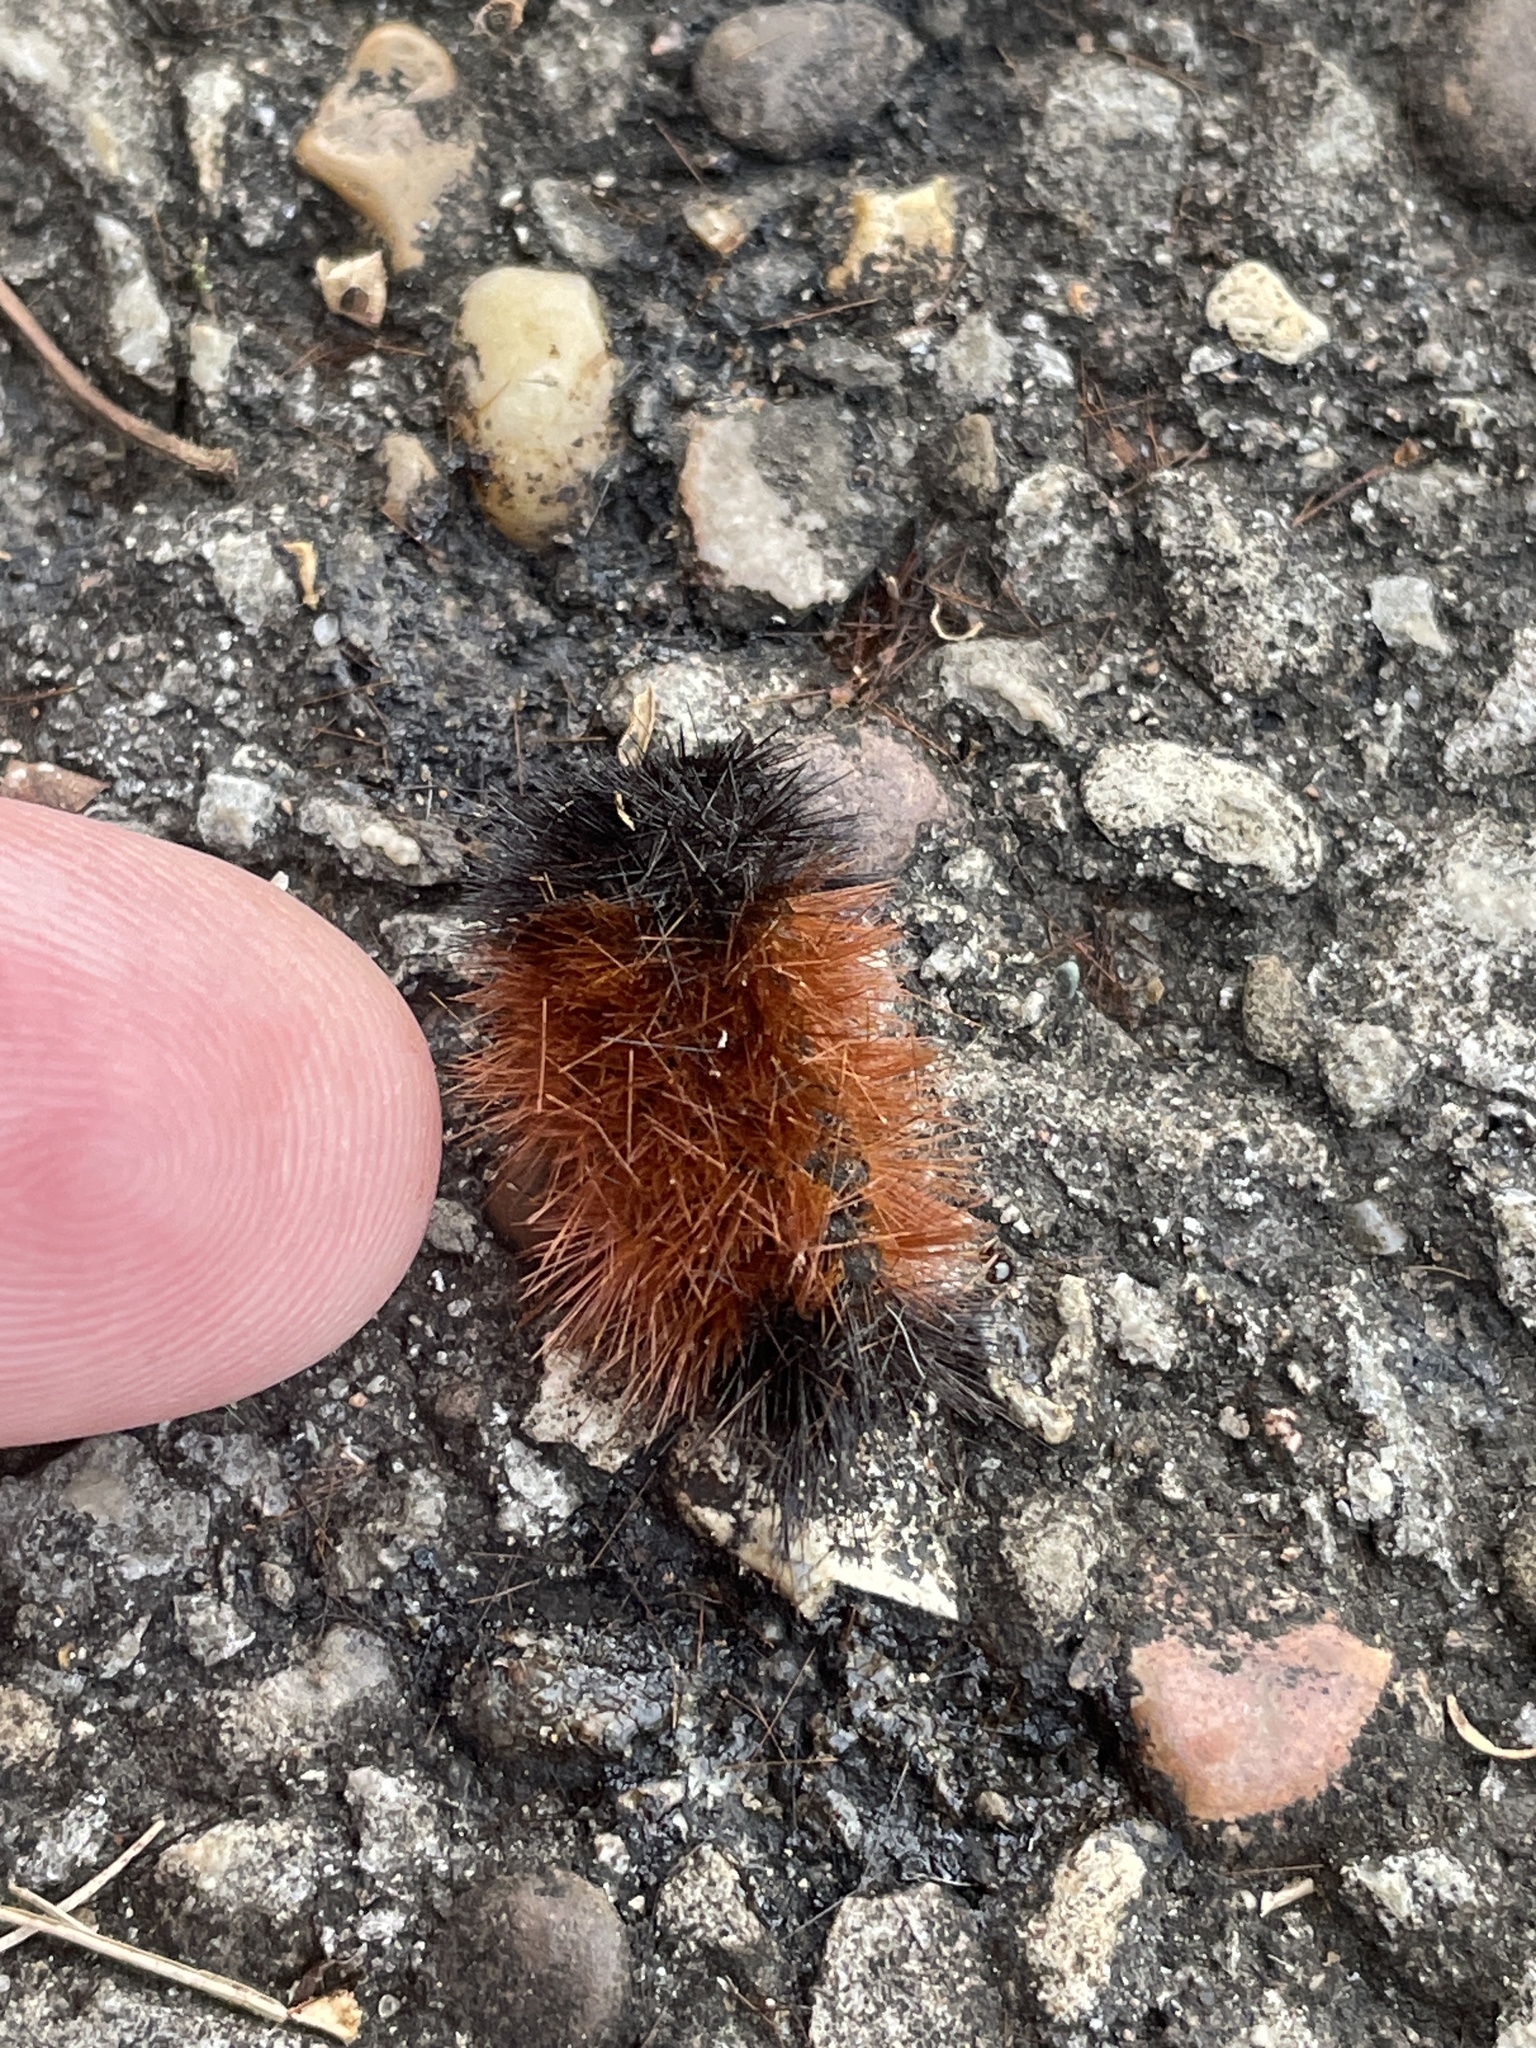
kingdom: Animalia
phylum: Arthropoda
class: Insecta
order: Lepidoptera
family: Erebidae
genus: Pyrrharctia
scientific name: Pyrrharctia isabella
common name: Isabella tiger moth
